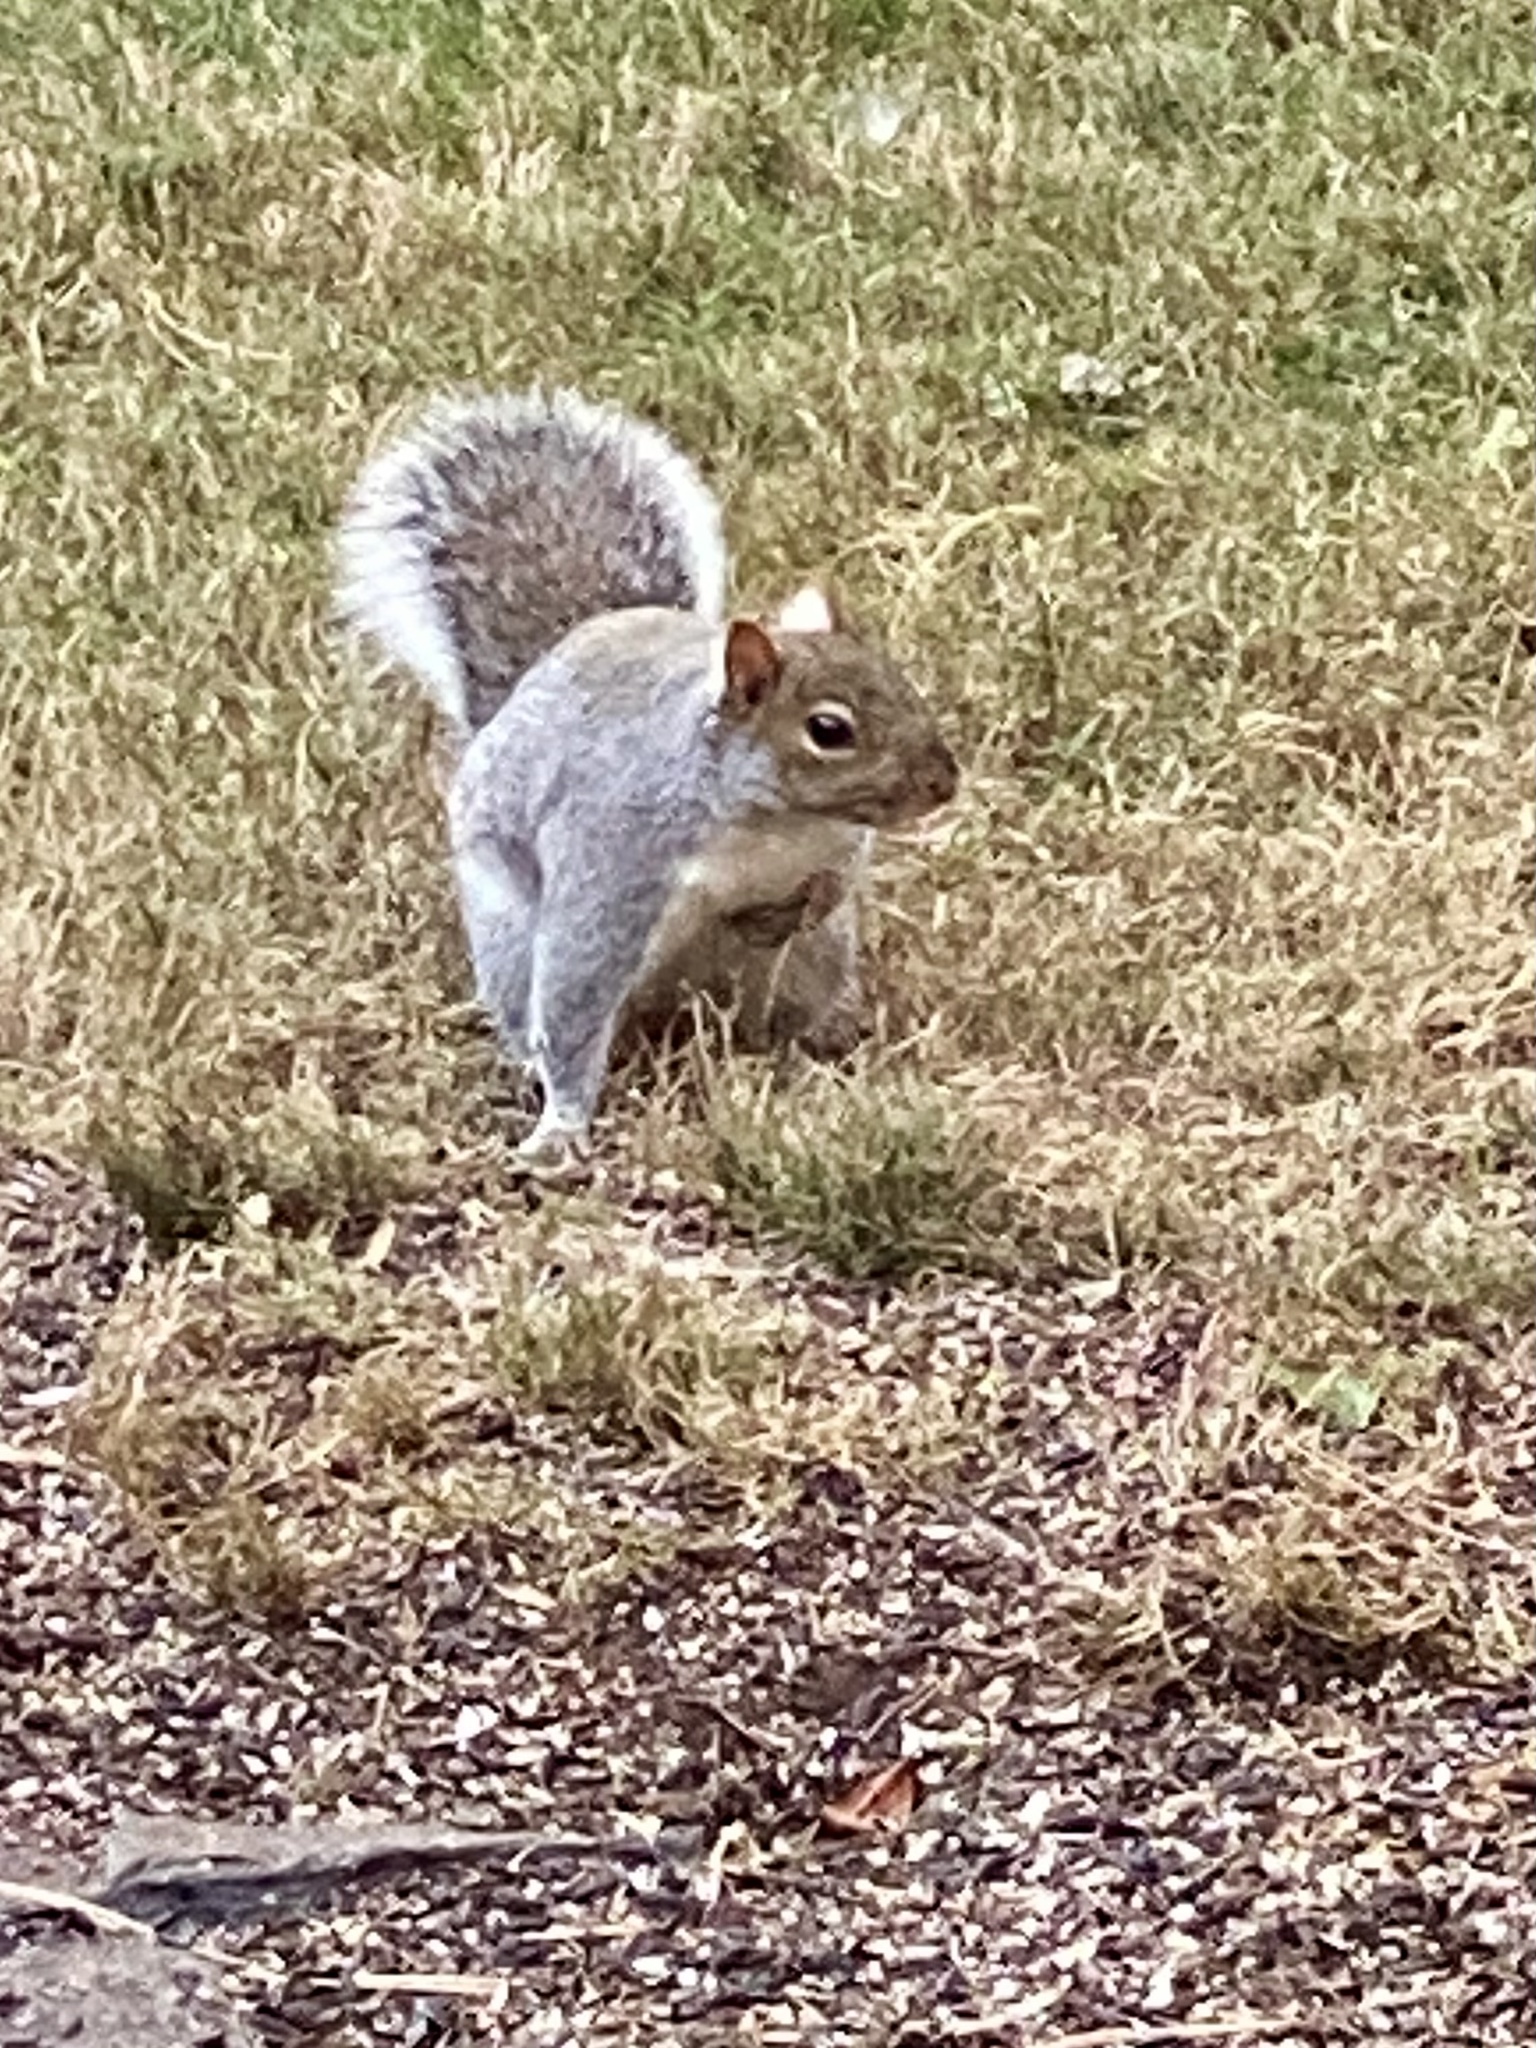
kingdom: Animalia
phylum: Chordata
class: Mammalia
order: Rodentia
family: Sciuridae
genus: Sciurus
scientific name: Sciurus carolinensis
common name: Eastern gray squirrel
